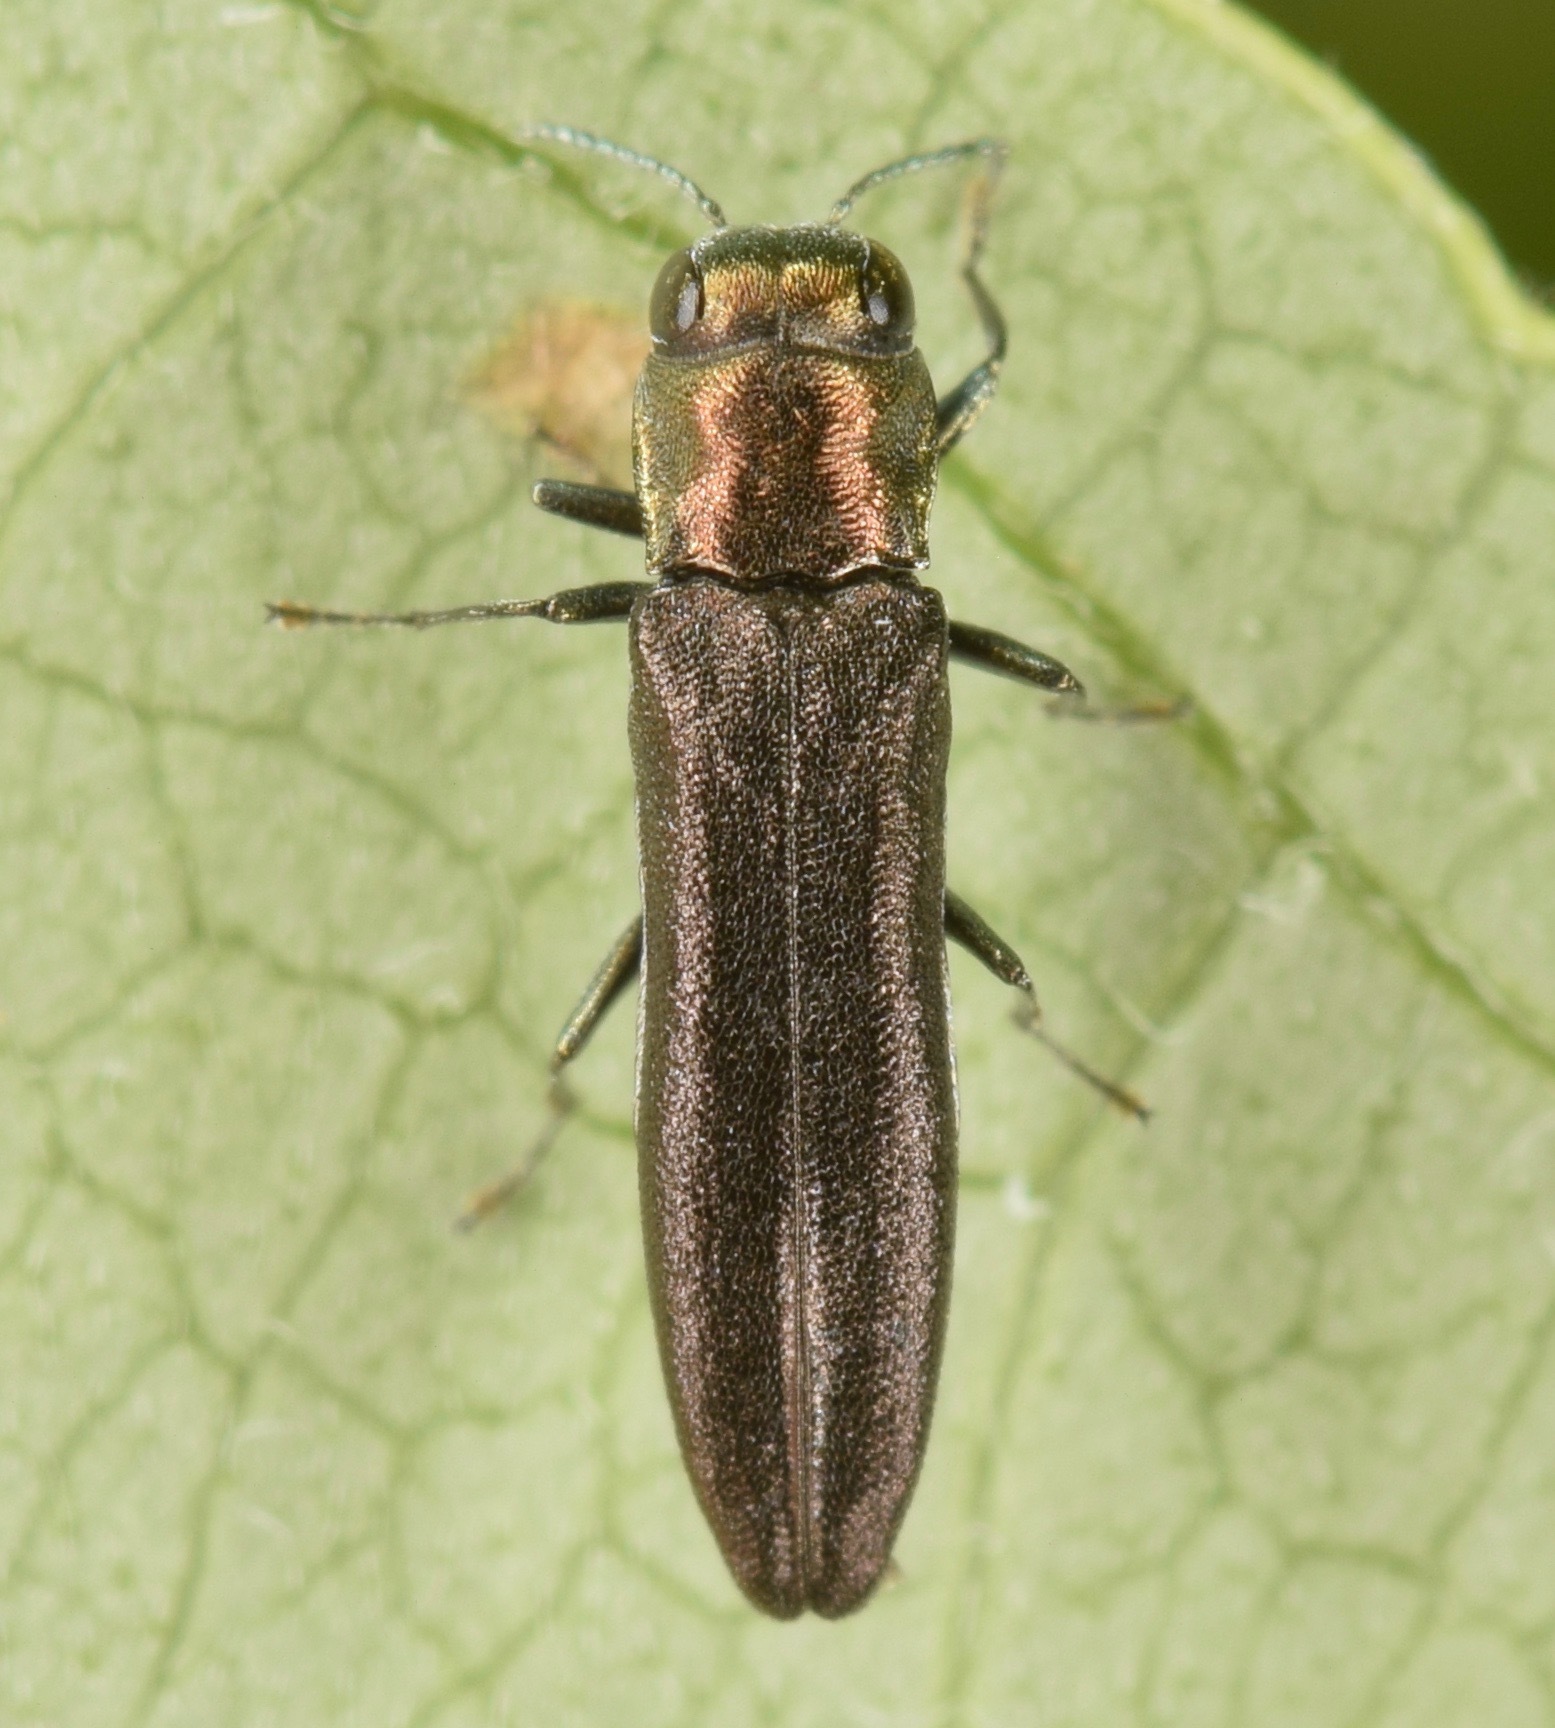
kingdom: Animalia
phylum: Arthropoda
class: Insecta
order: Coleoptera
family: Buprestidae
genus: Agrilus
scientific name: Agrilus cephalicus
